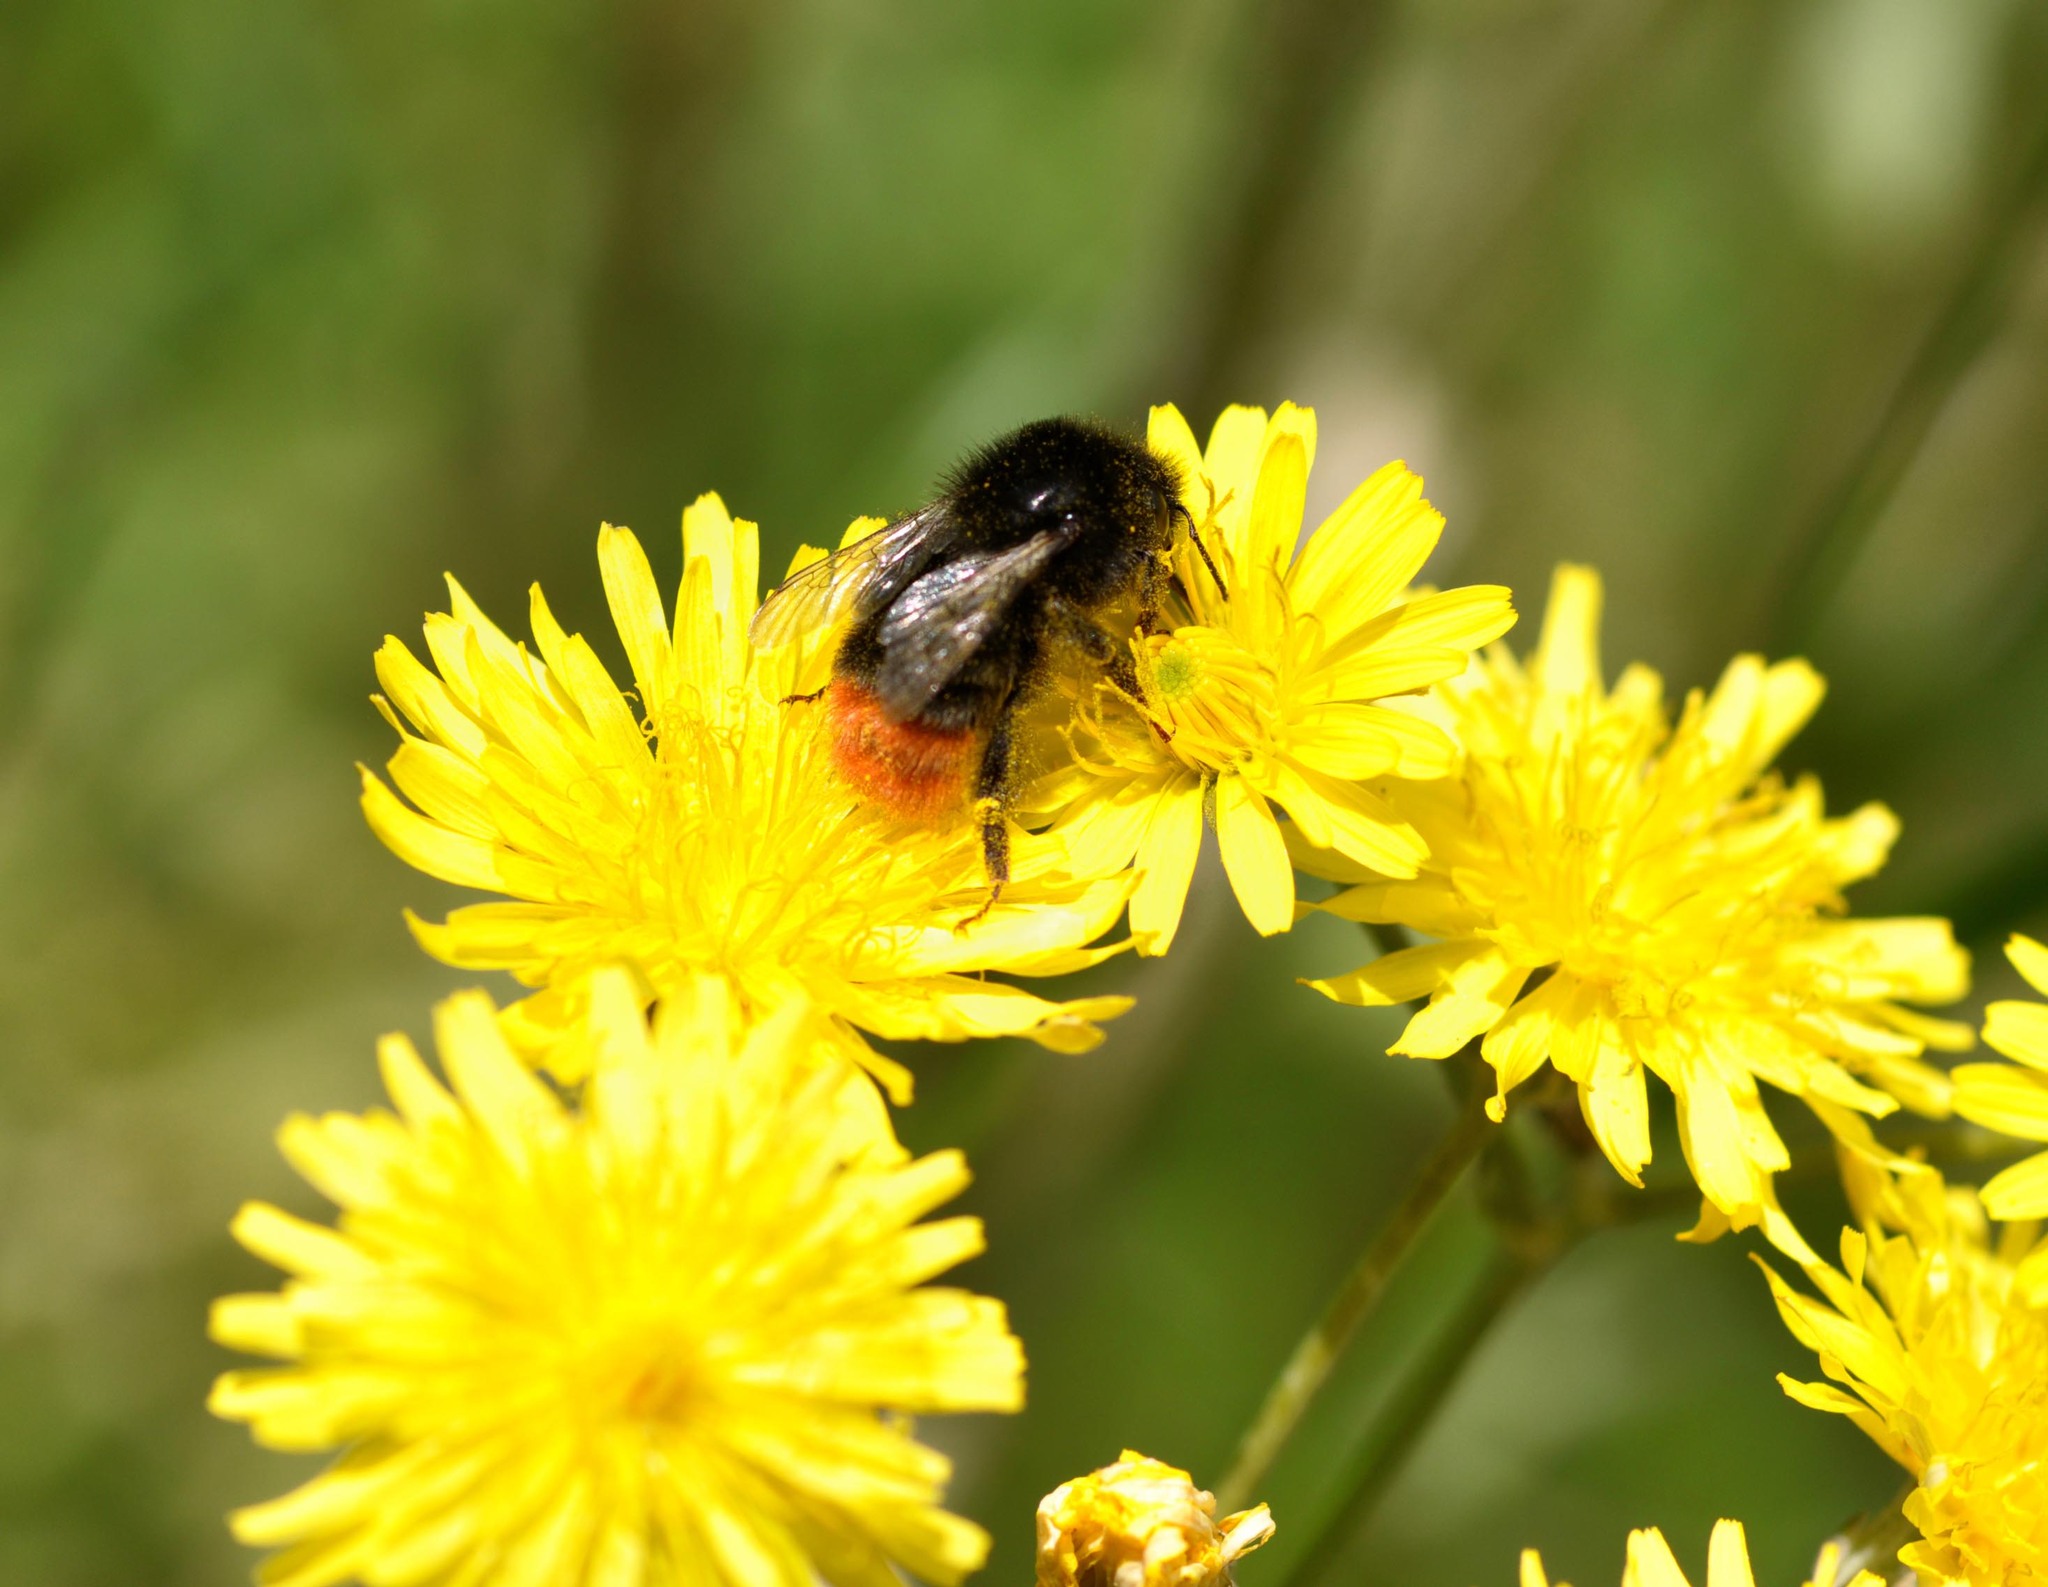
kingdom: Animalia
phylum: Arthropoda
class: Insecta
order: Hymenoptera
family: Apidae
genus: Bombus
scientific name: Bombus lapidarius
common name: Large red-tailed humble-bee
